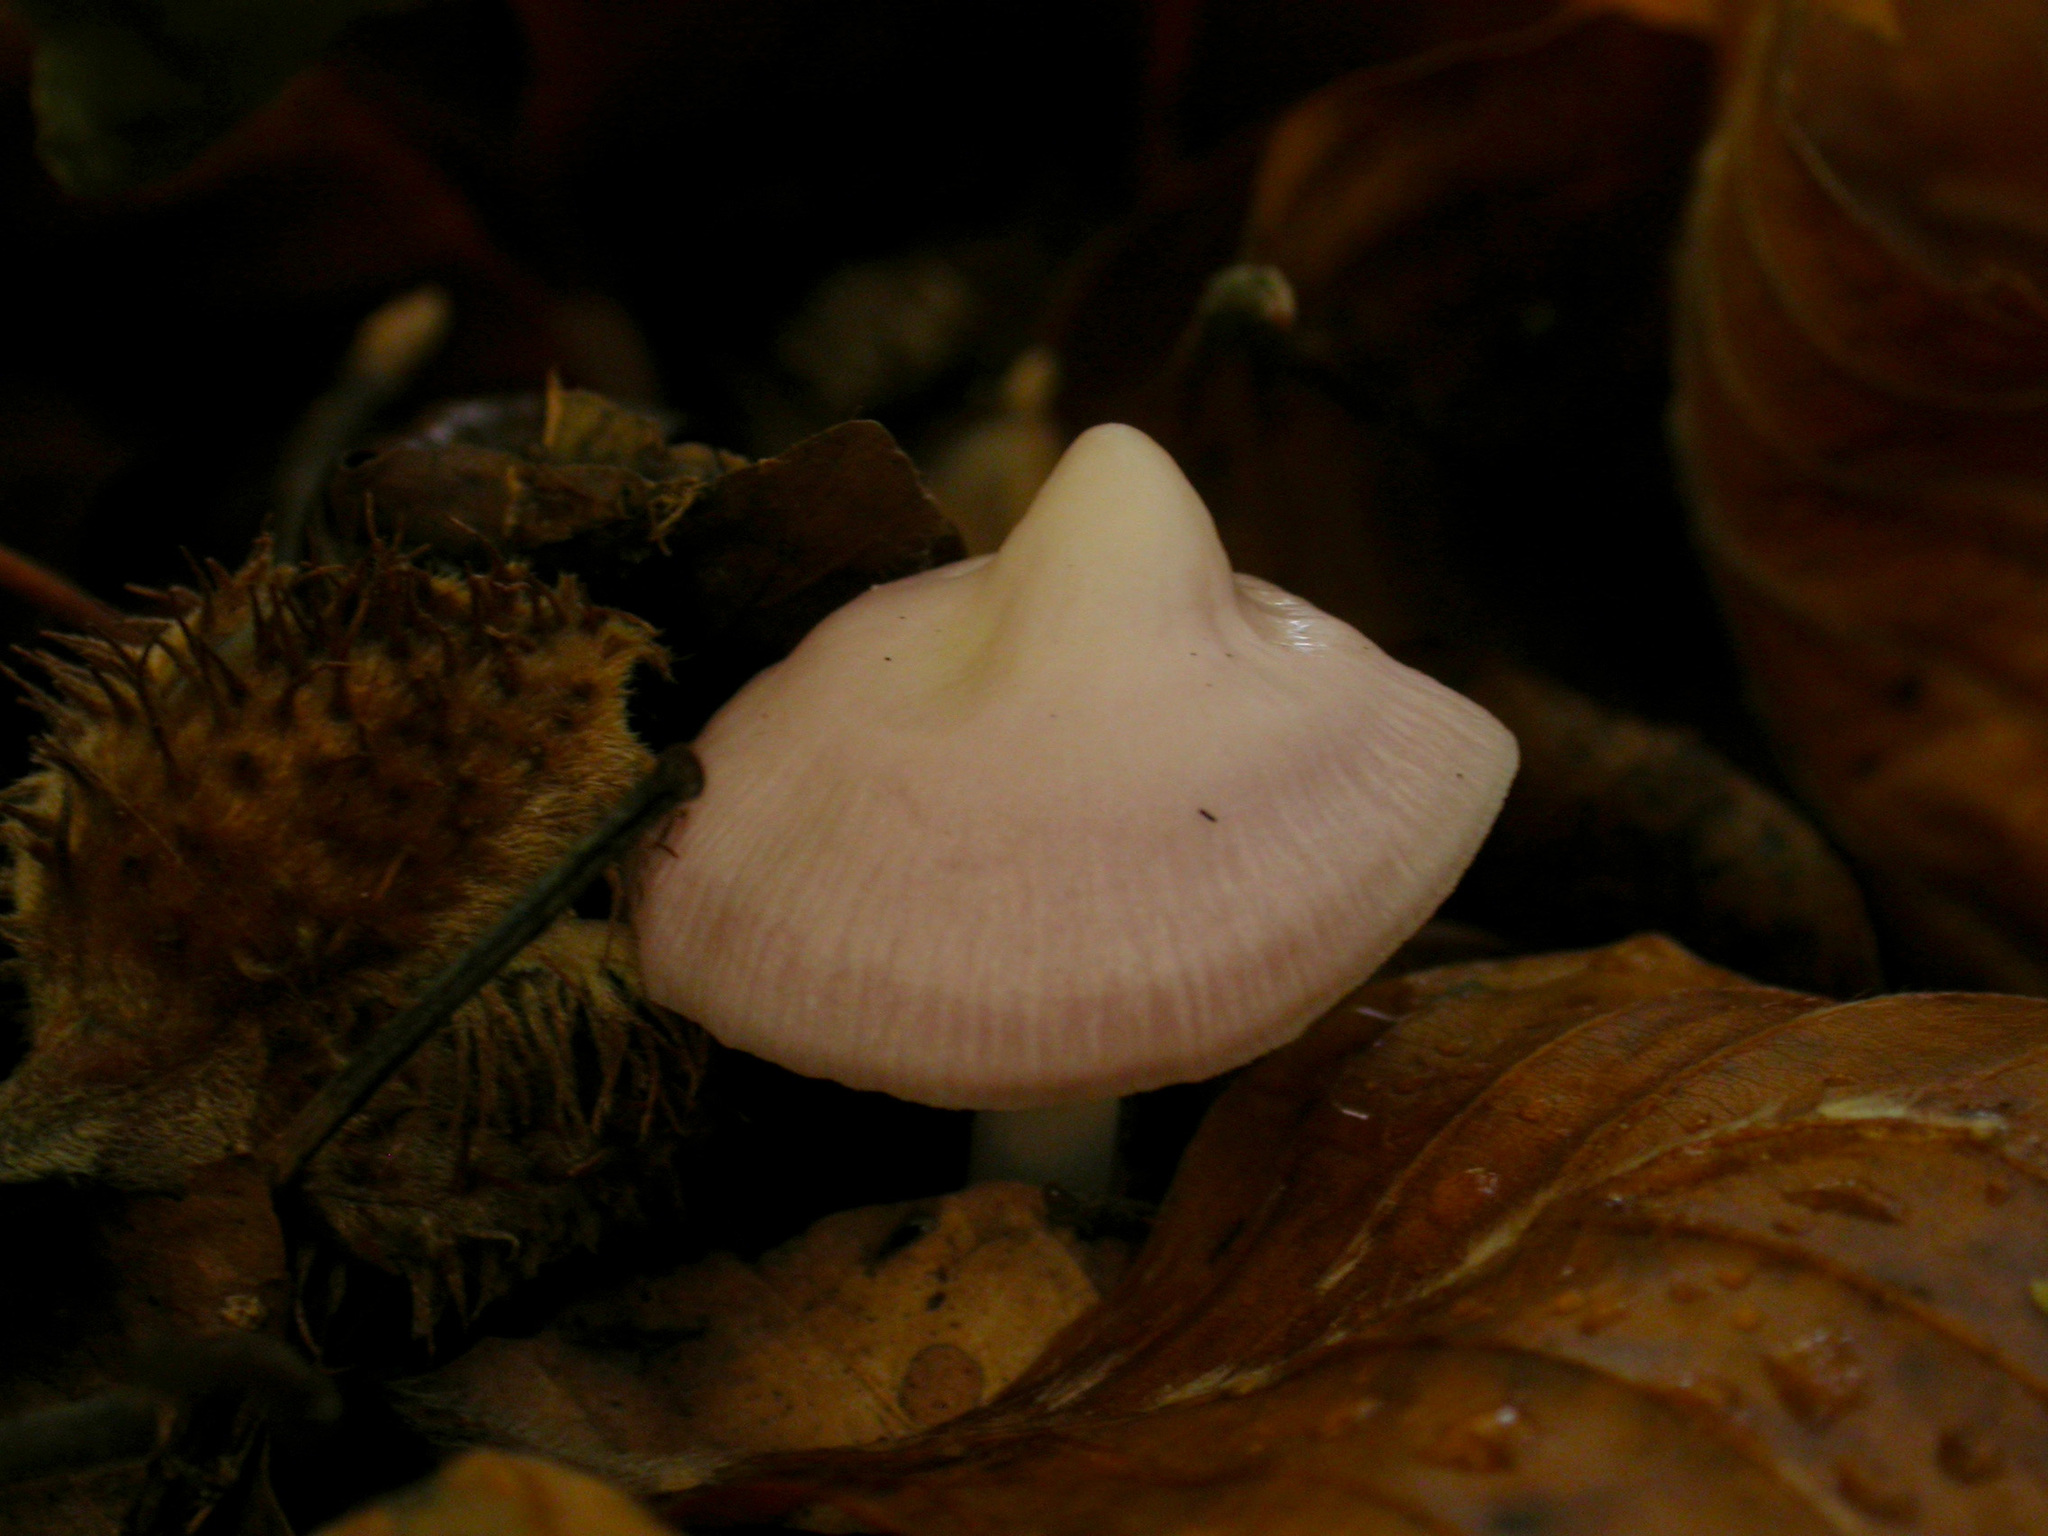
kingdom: Fungi
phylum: Basidiomycota
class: Agaricomycetes
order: Agaricales
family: Mycenaceae
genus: Mycena
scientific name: Mycena rosea
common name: Rosy bonnet
